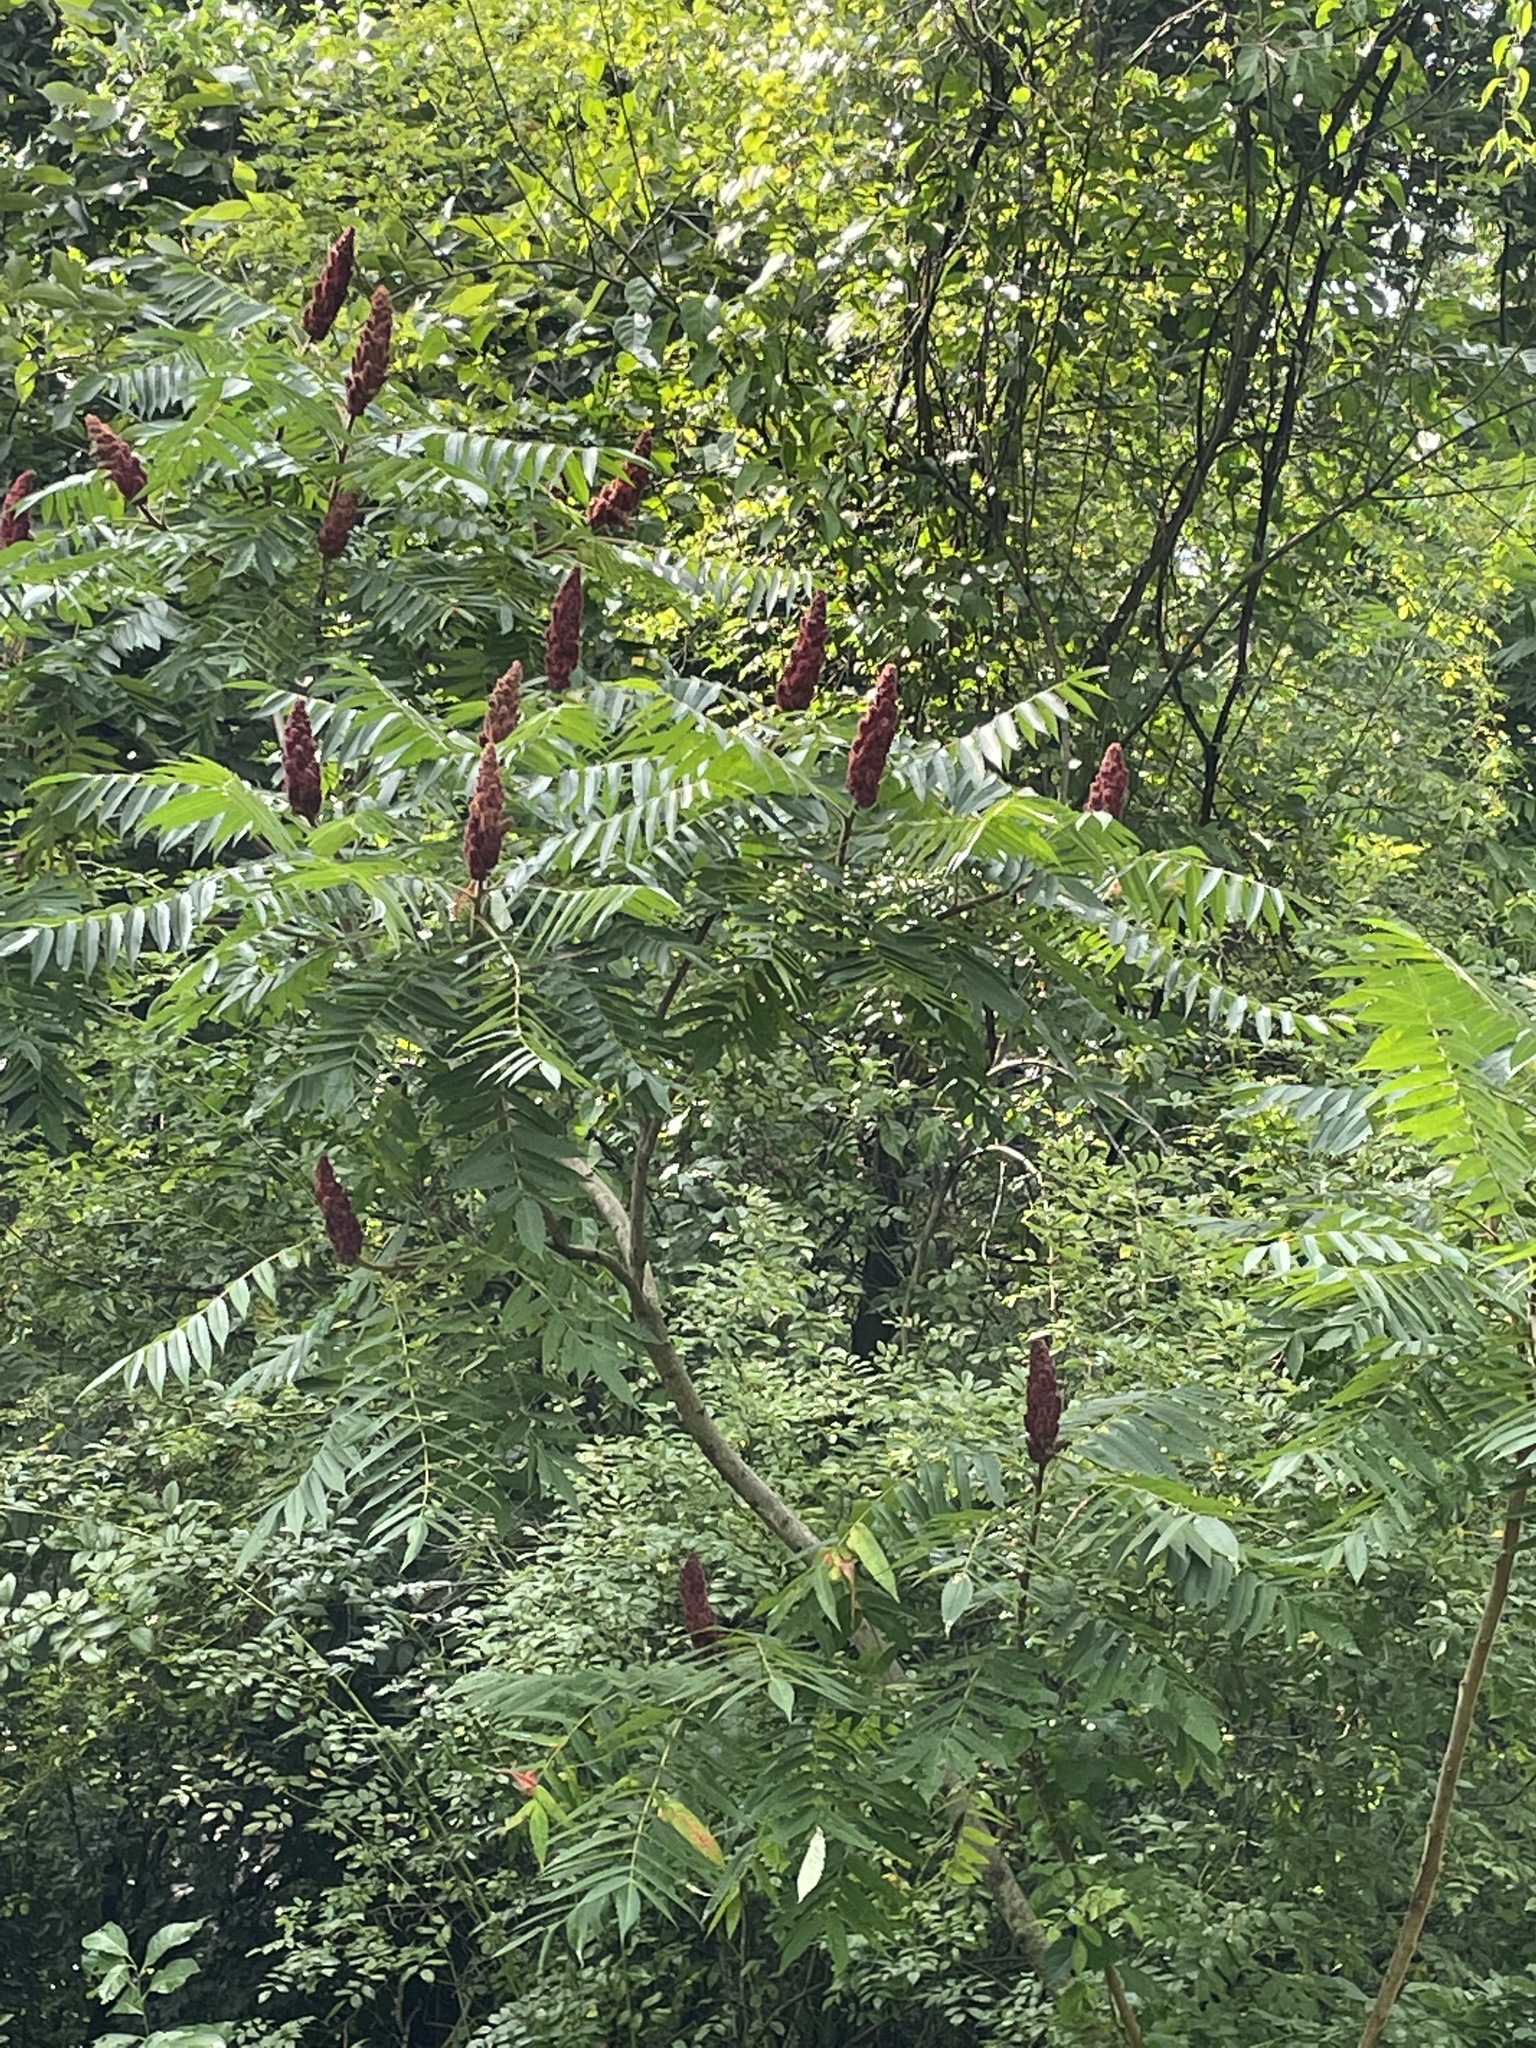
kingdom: Plantae
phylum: Tracheophyta
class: Magnoliopsida
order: Sapindales
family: Anacardiaceae
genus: Rhus
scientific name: Rhus typhina
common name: Staghorn sumac
